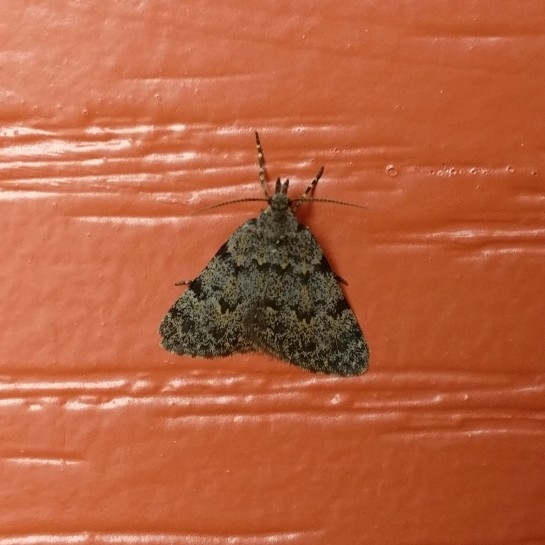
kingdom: Animalia
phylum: Arthropoda
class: Insecta
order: Lepidoptera
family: Geometridae
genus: Dichromodes
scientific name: Dichromodes sphaeriata
